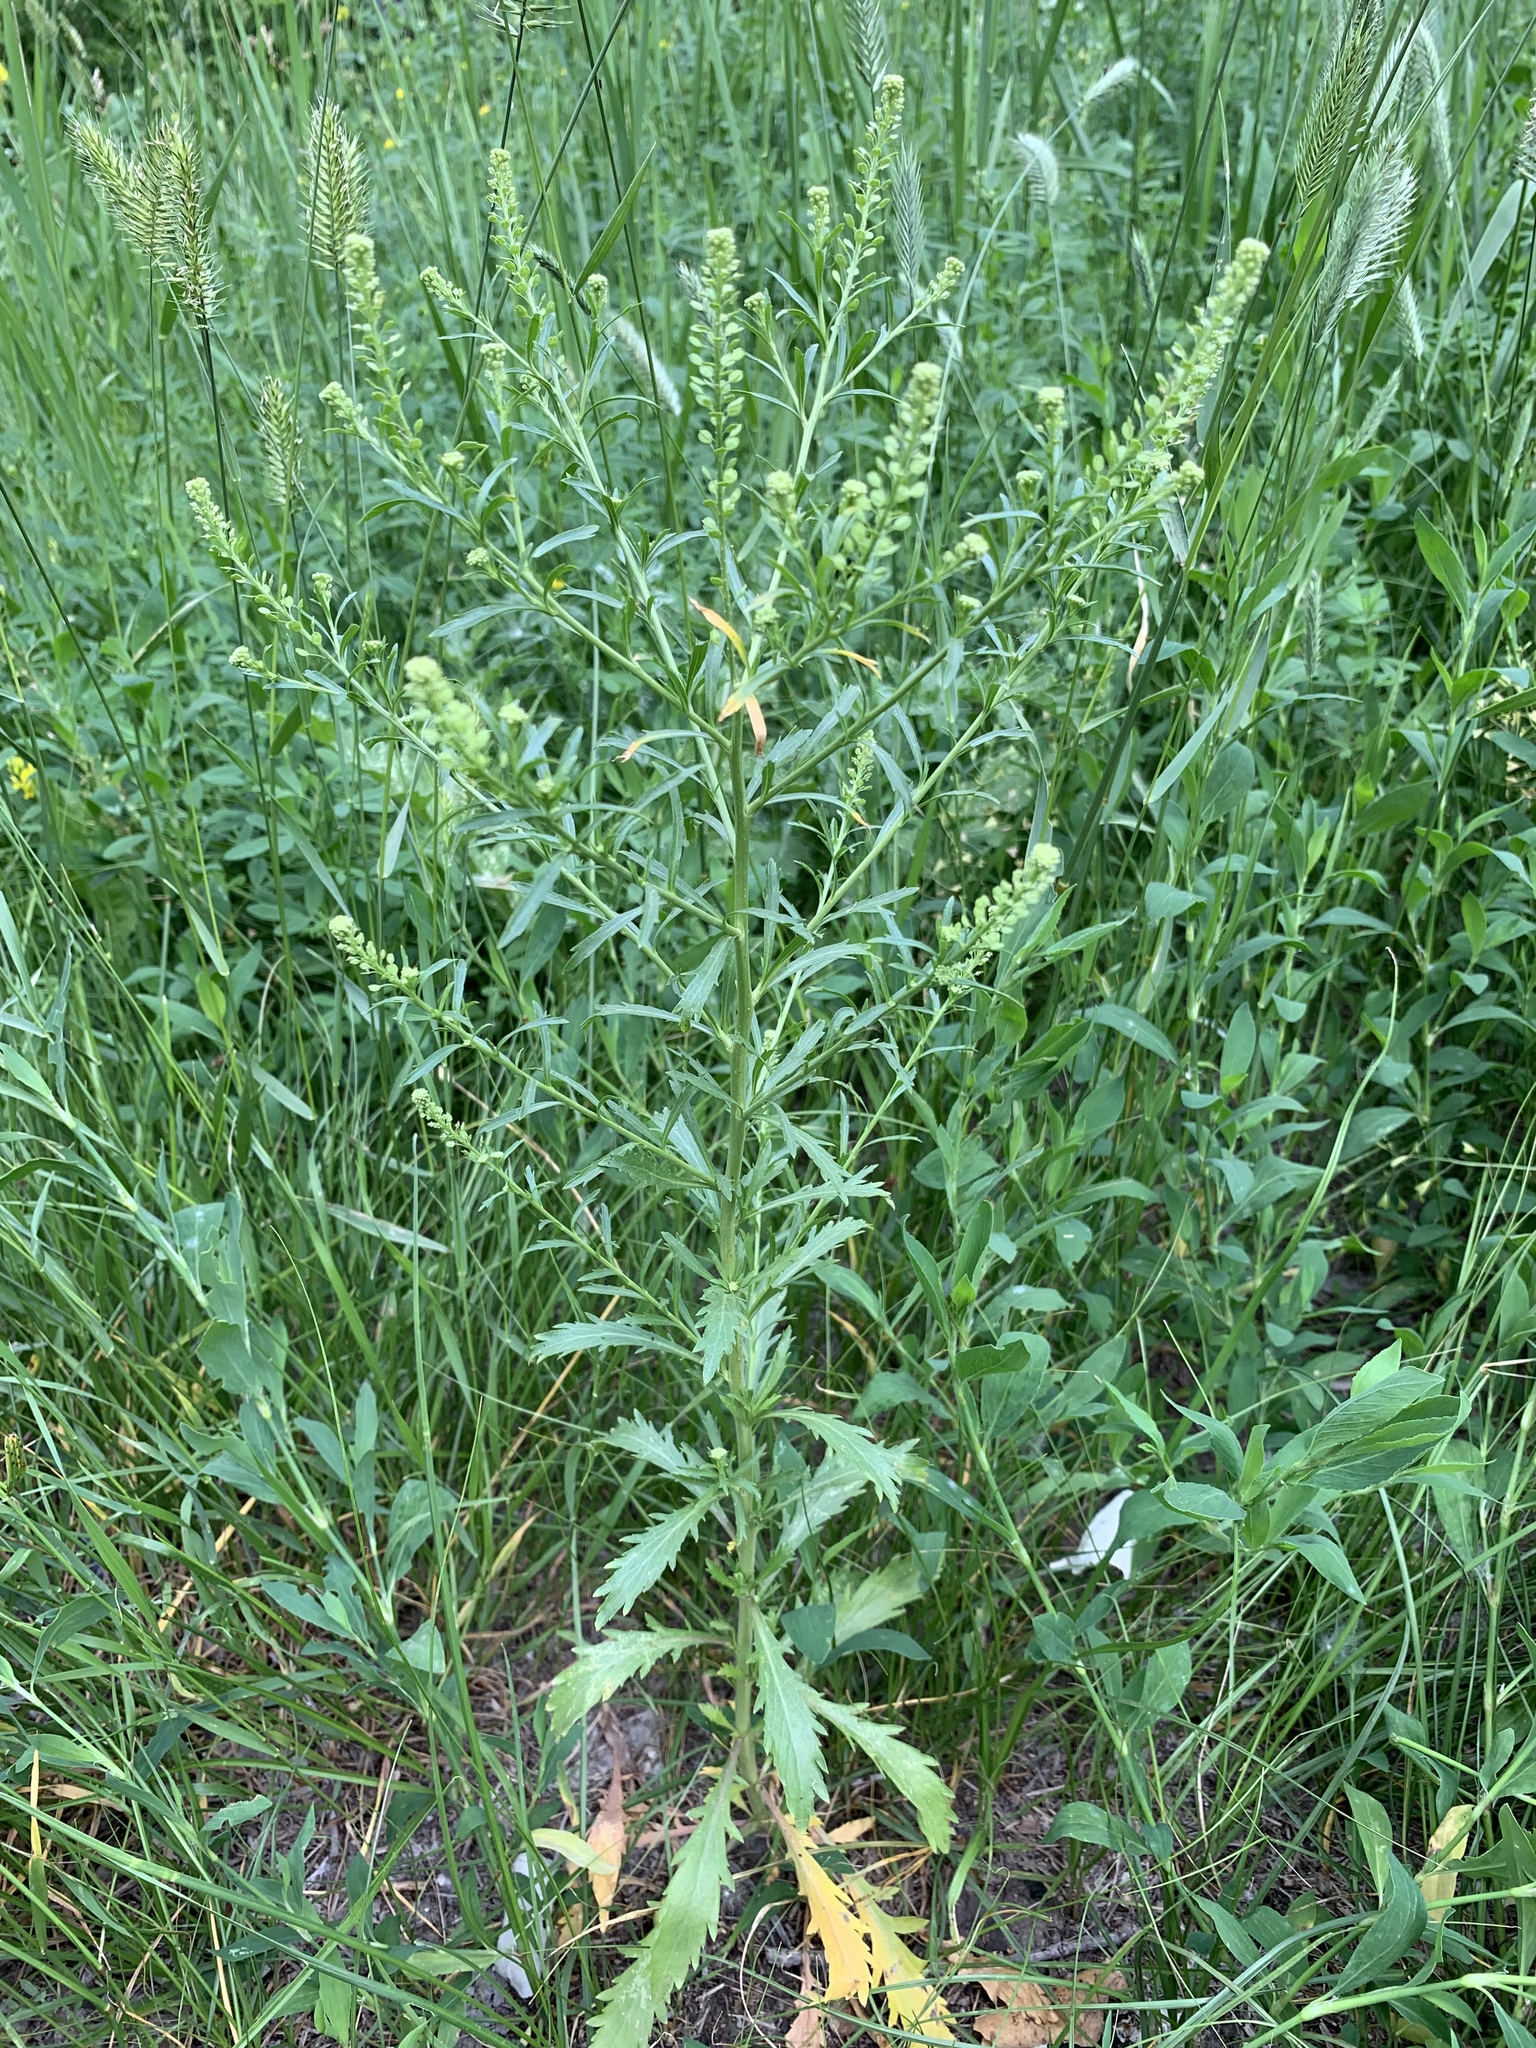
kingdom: Plantae
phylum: Tracheophyta
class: Magnoliopsida
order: Brassicales
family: Brassicaceae
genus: Lepidium
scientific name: Lepidium densiflorum
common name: Miner's pepperwort
